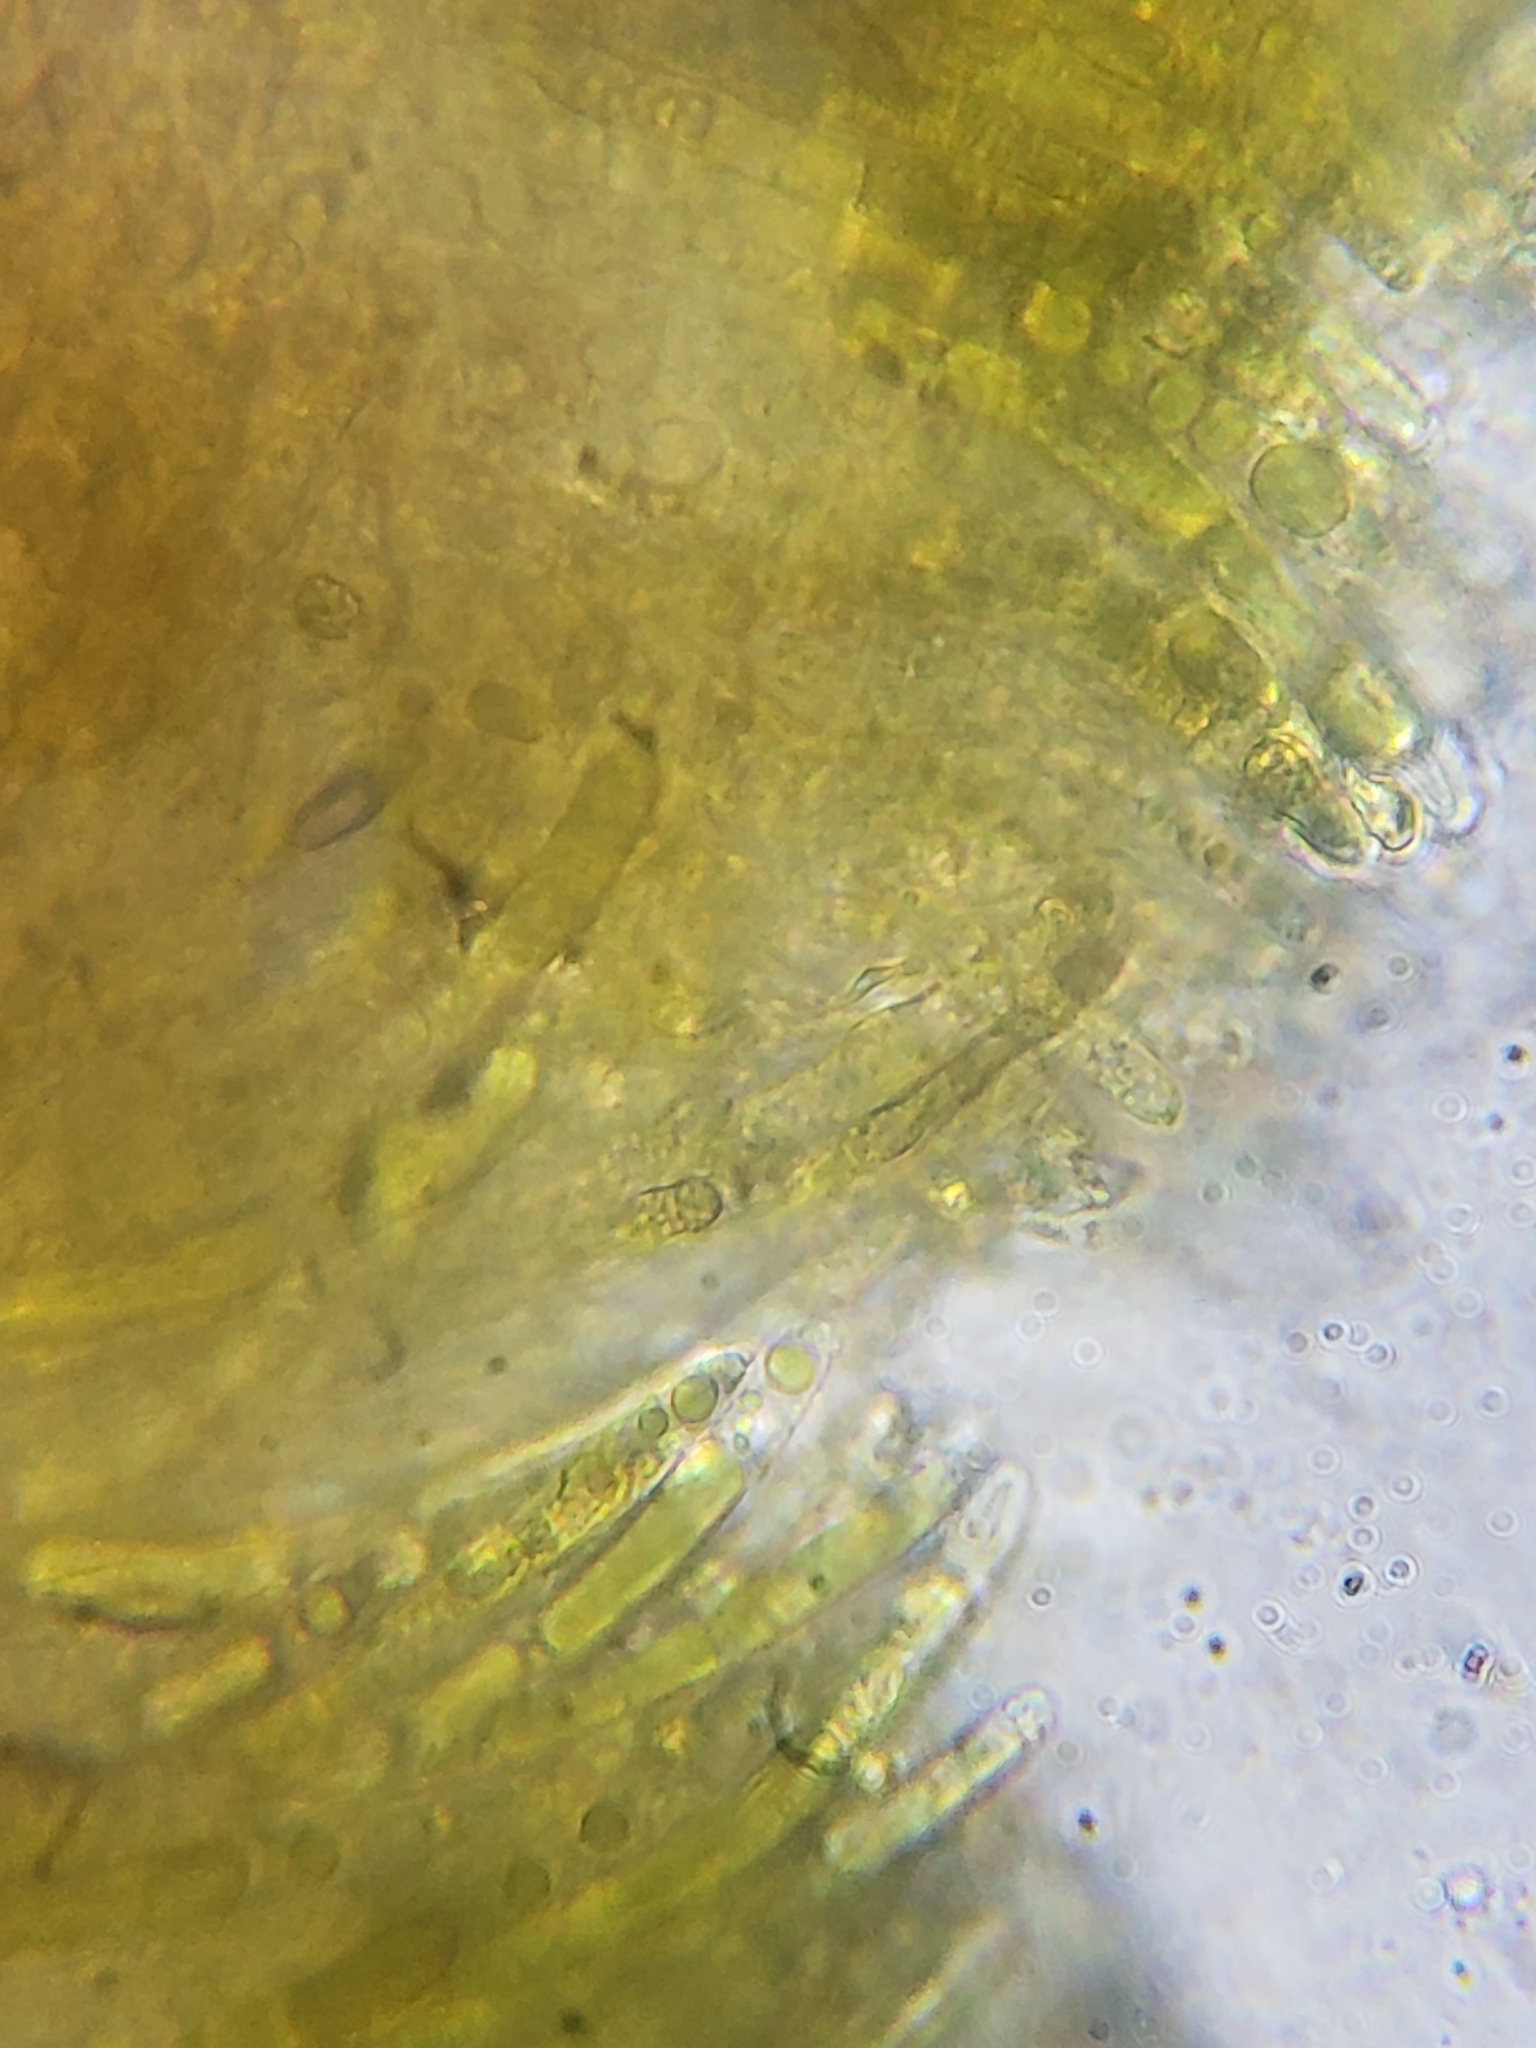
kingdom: Fungi
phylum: Ascomycota
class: Leotiomycetes
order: Helotiales
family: Cenangiaceae
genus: Chlorencoelia
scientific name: Chlorencoelia torta
